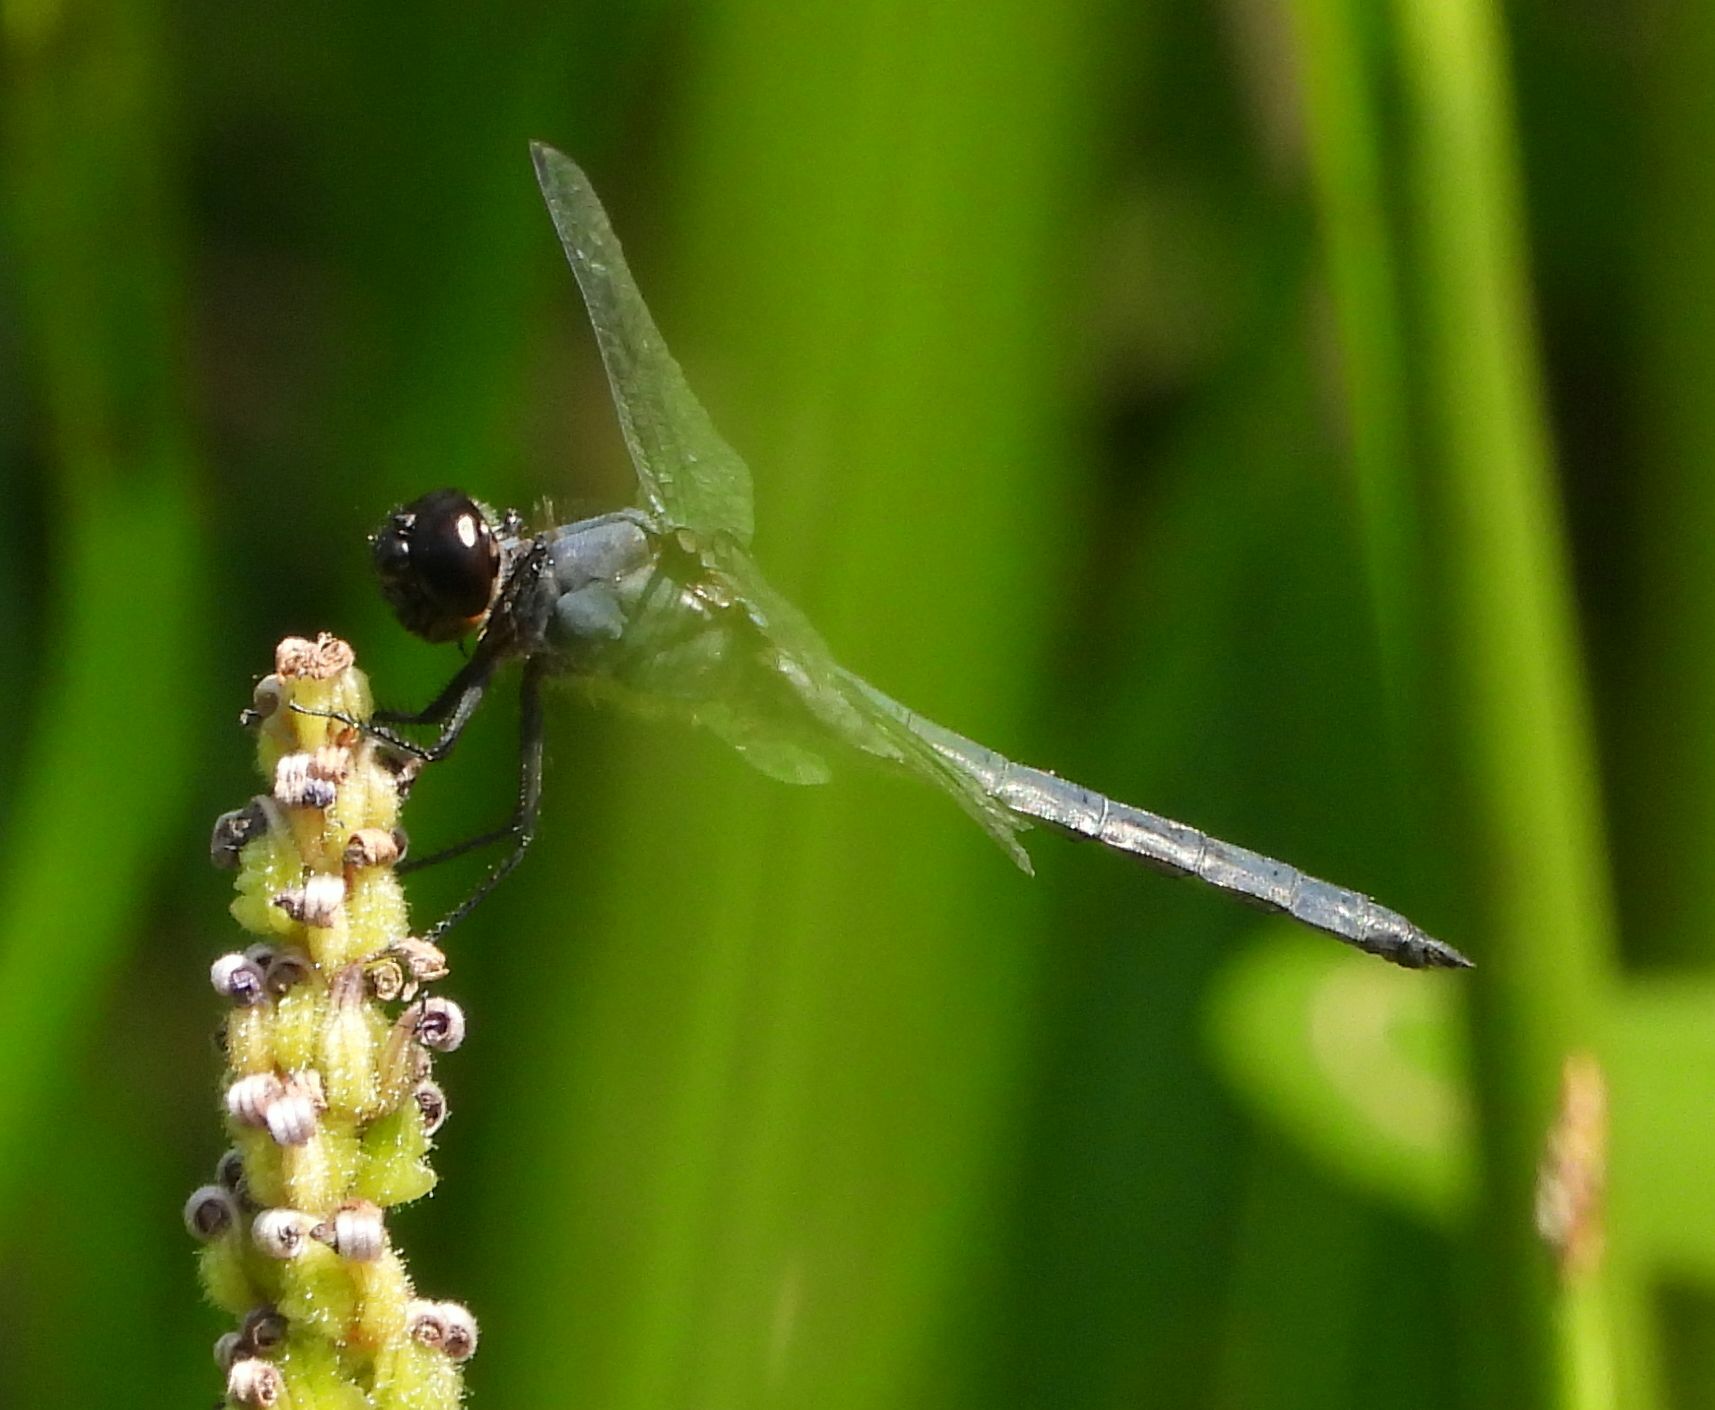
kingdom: Animalia
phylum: Arthropoda
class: Insecta
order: Odonata
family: Libellulidae
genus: Libellula
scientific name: Libellula incesta
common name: Slaty skimmer
